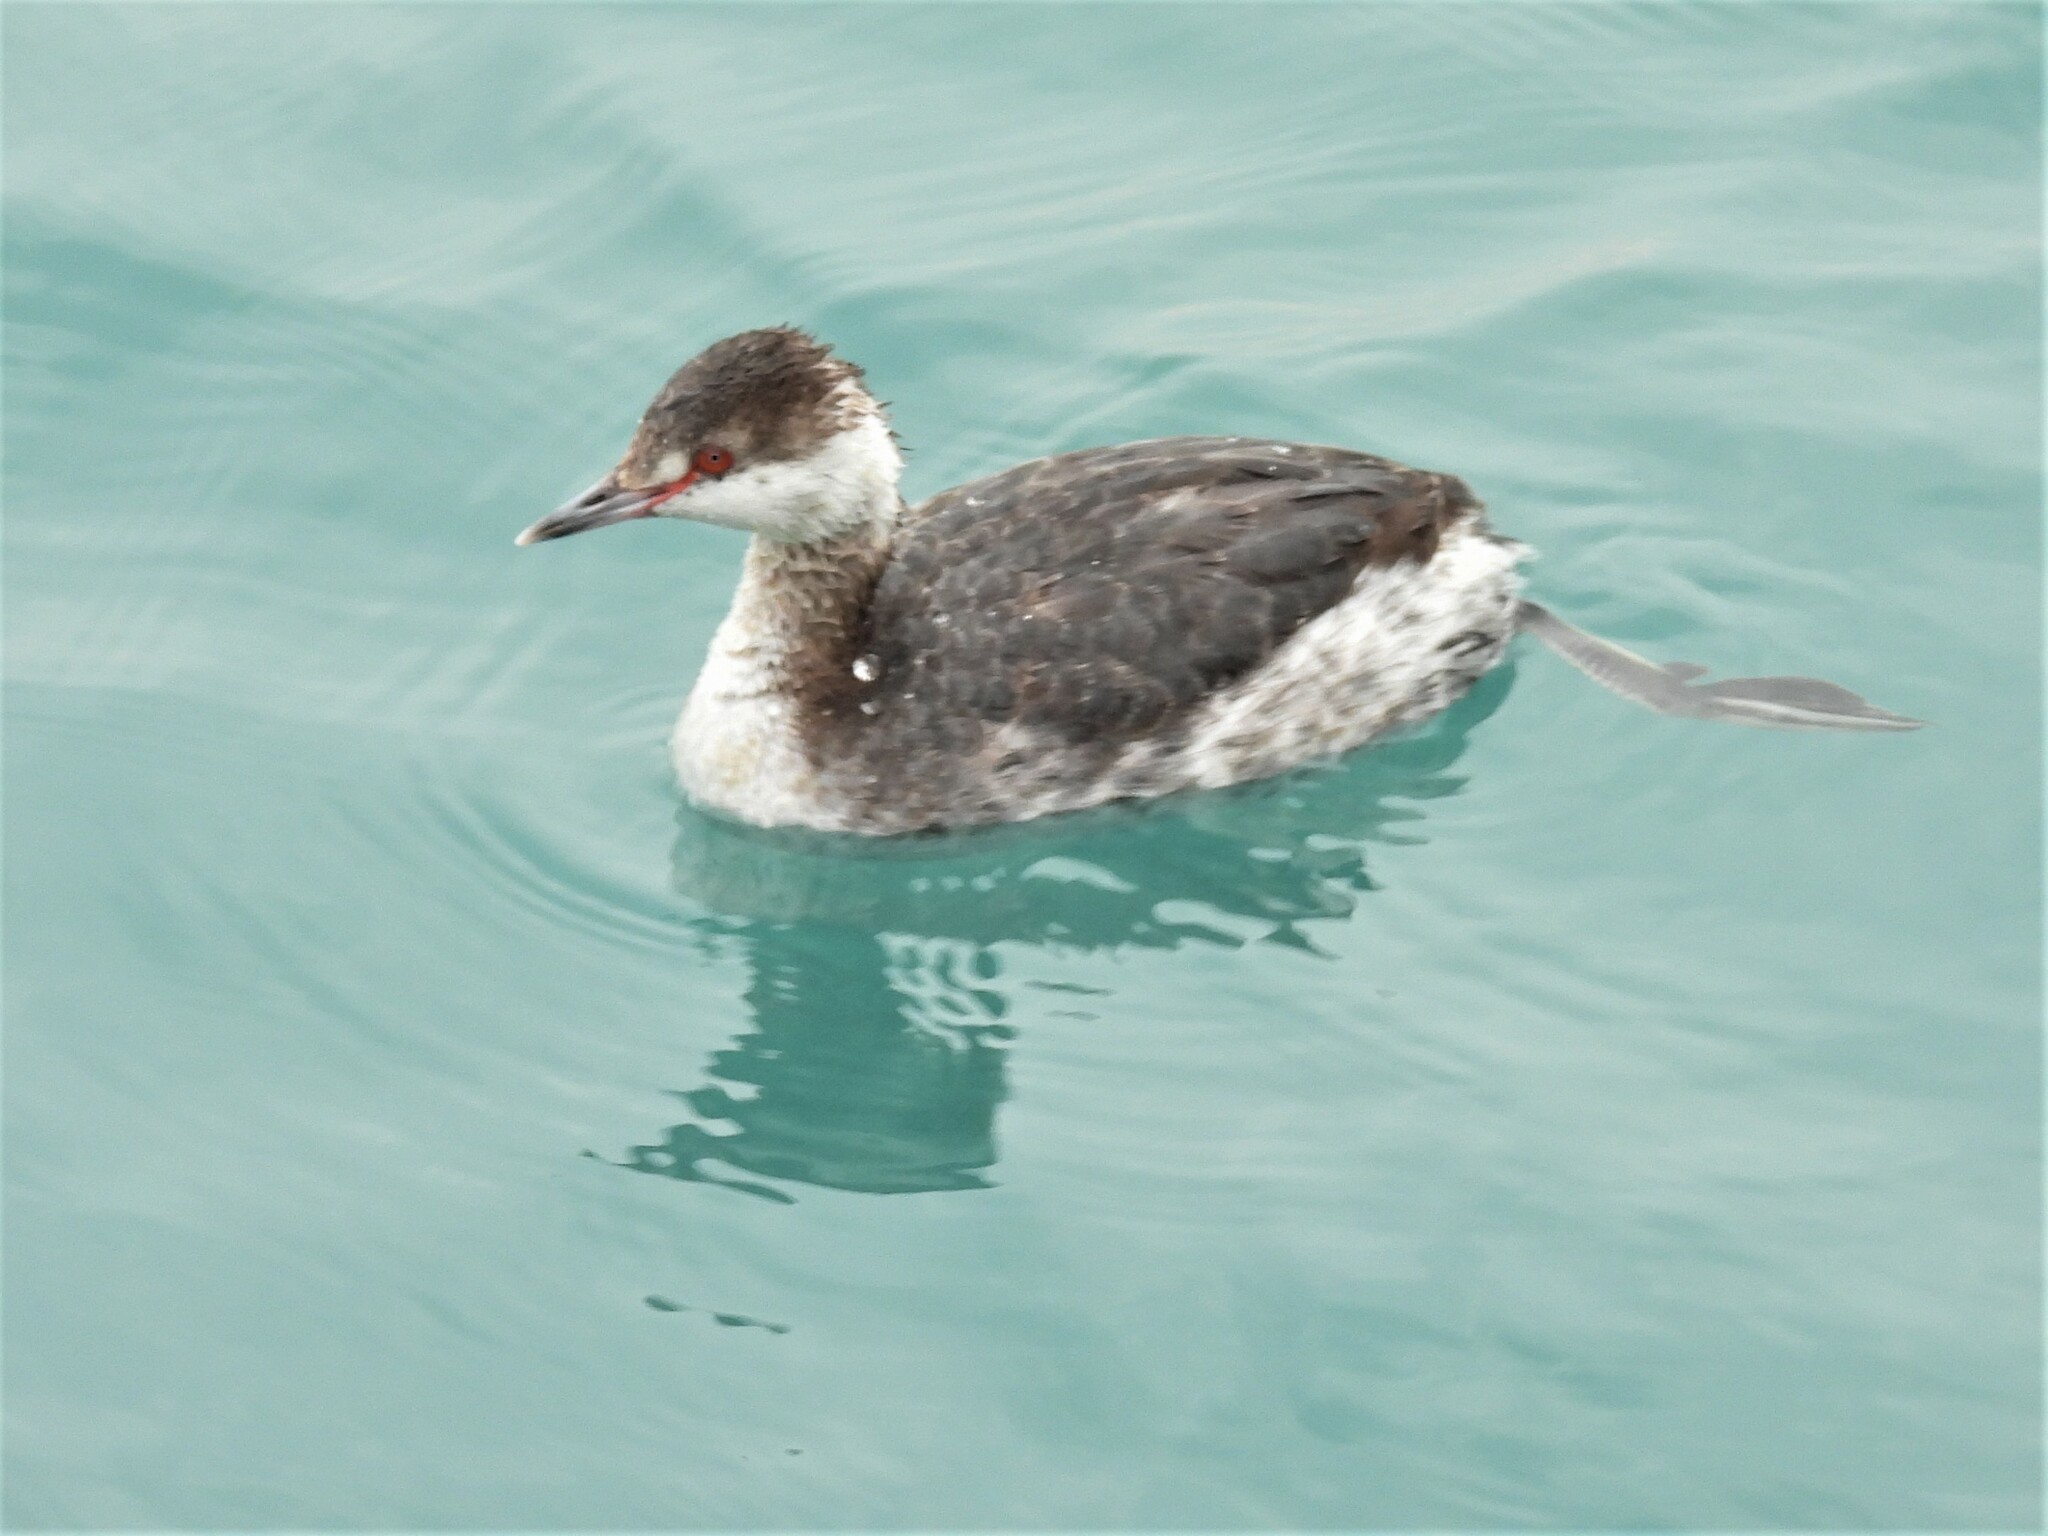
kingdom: Animalia
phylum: Chordata
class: Aves
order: Podicipediformes
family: Podicipedidae
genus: Podiceps
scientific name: Podiceps auritus
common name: Horned grebe
